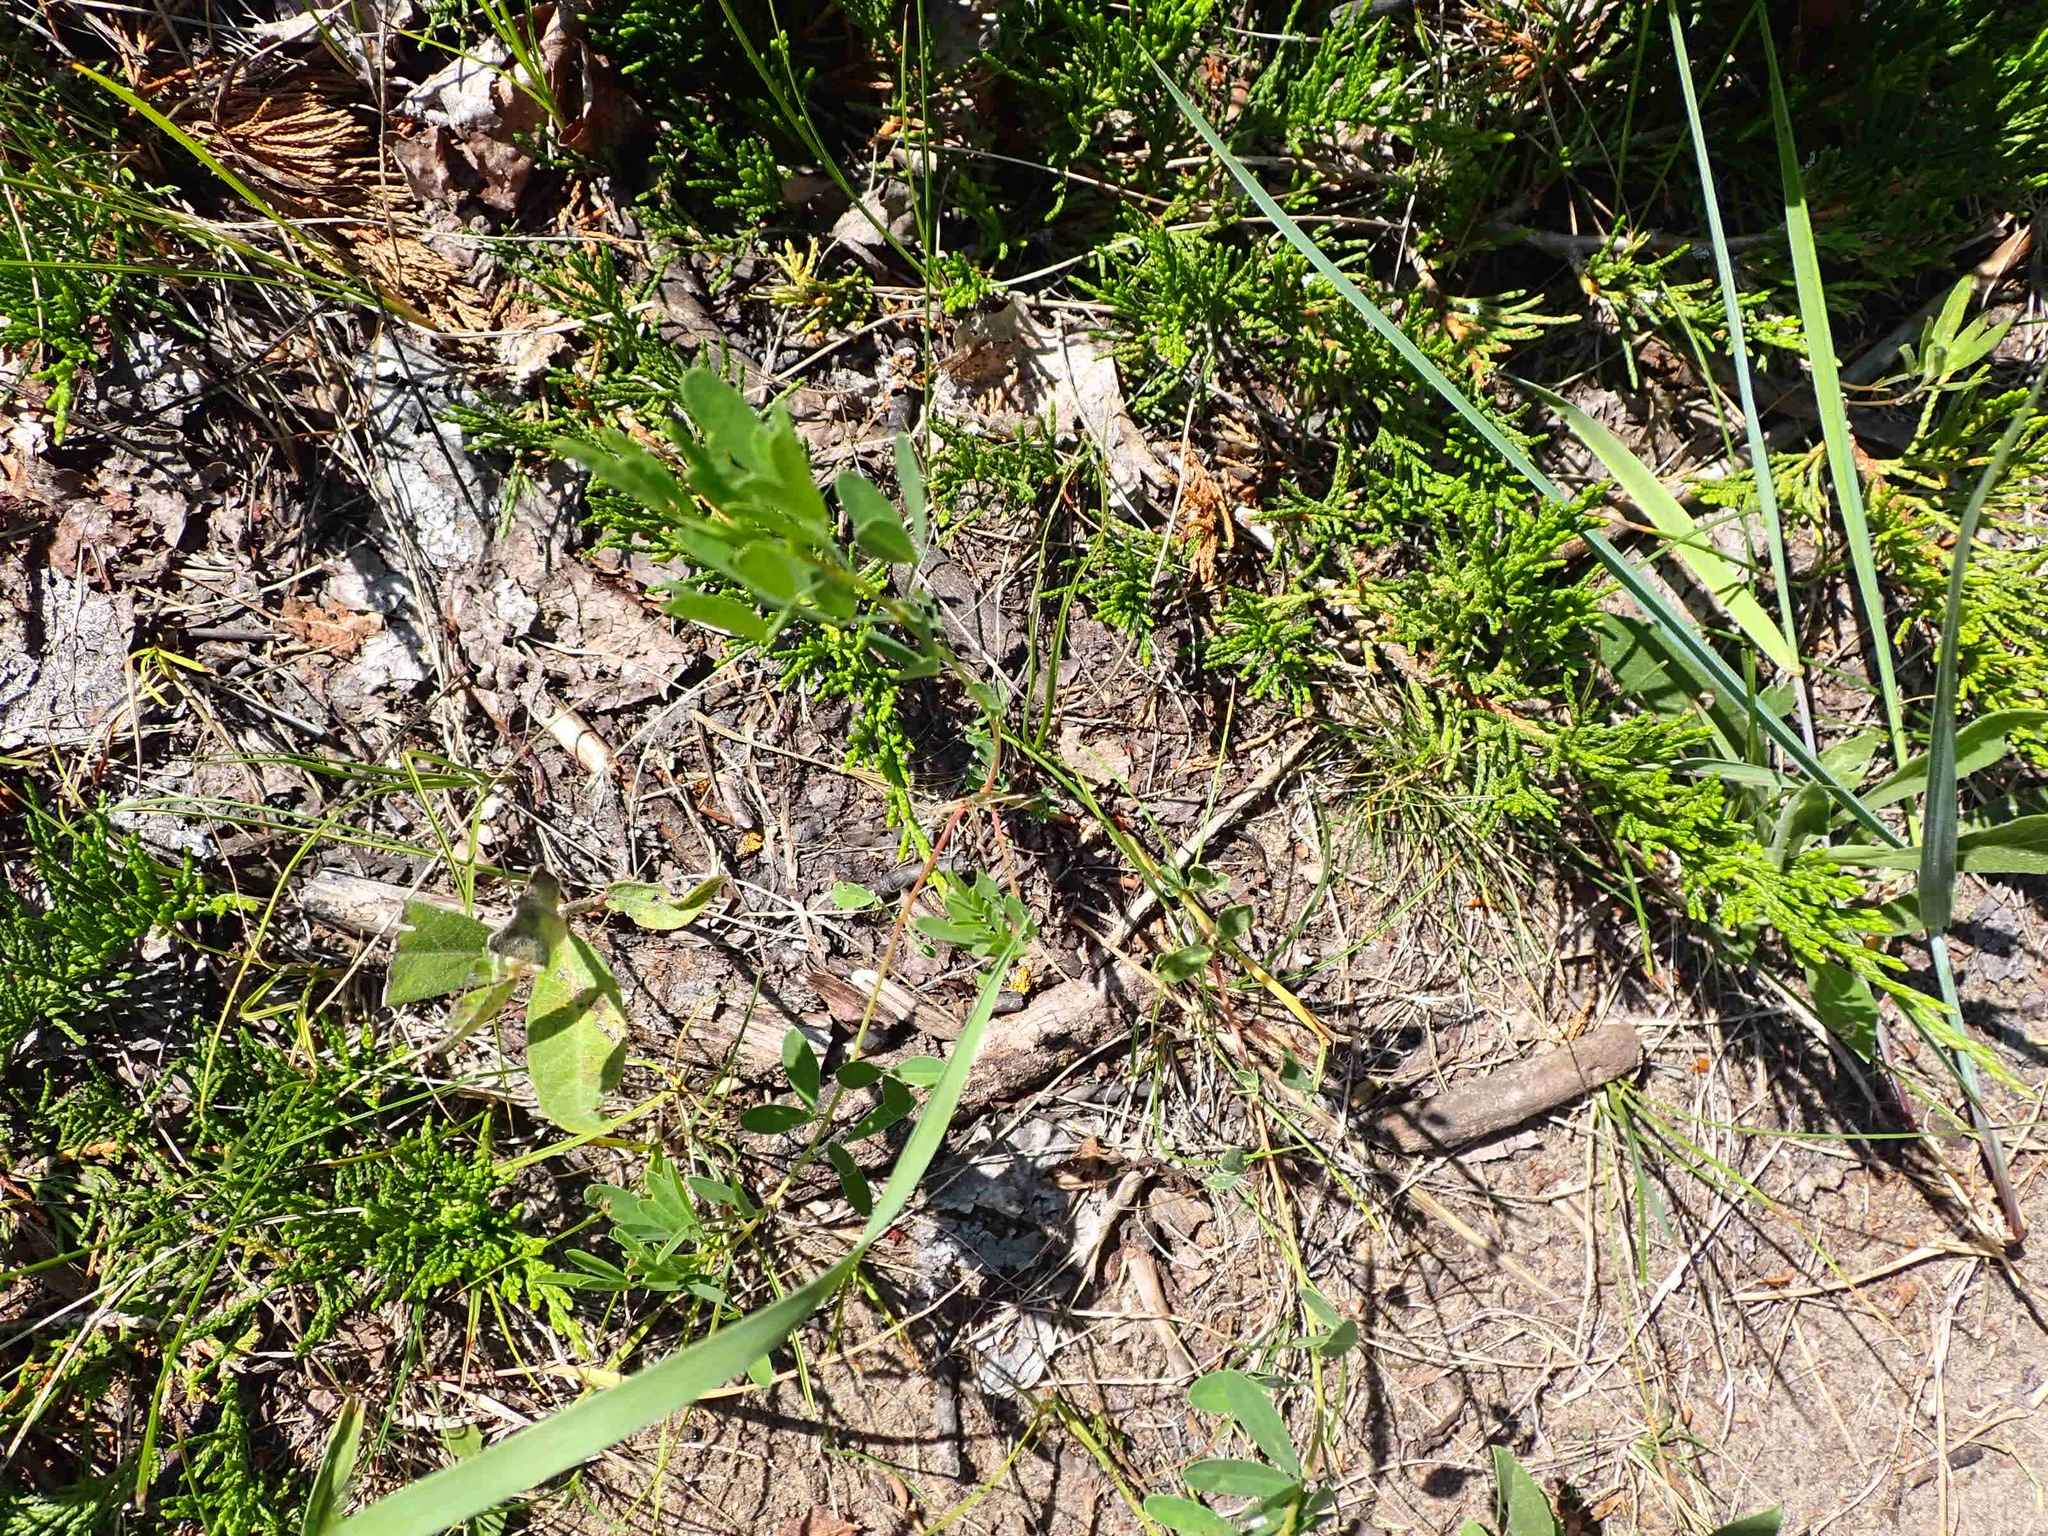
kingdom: Plantae
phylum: Tracheophyta
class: Pinopsida
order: Pinales
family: Cupressaceae
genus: Juniperus
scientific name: Juniperus horizontalis
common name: Creeping juniper
